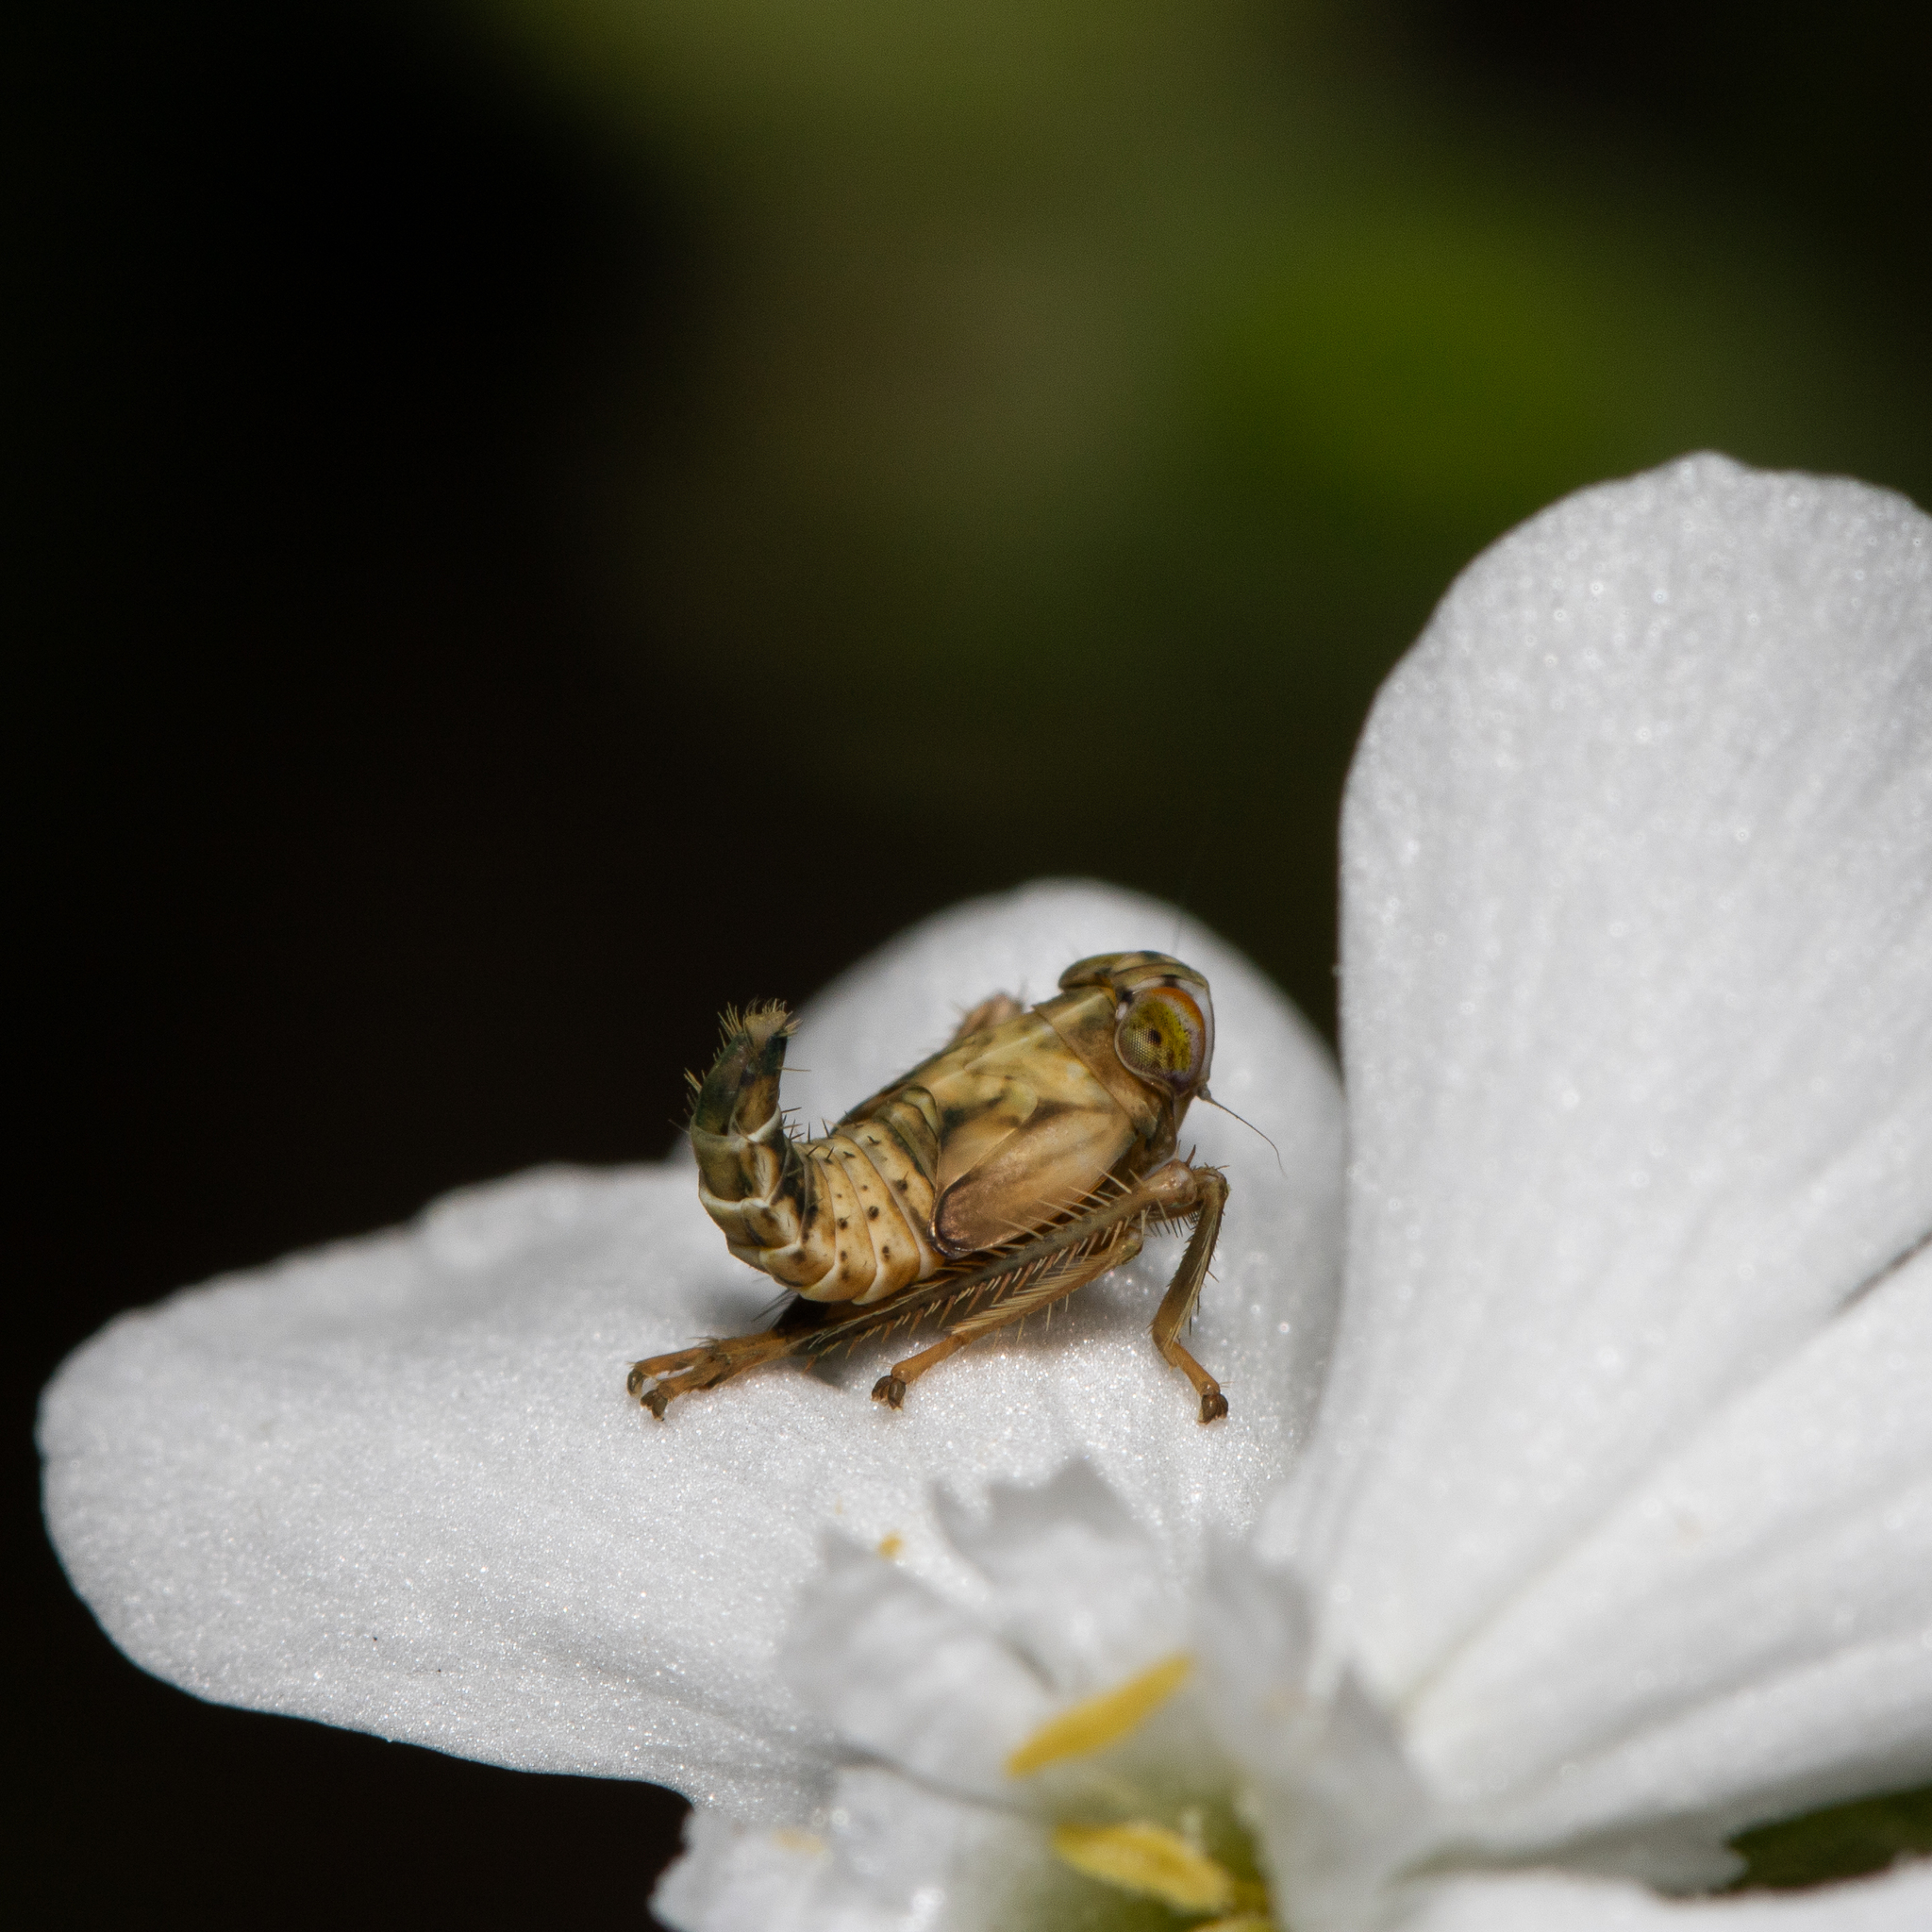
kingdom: Animalia
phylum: Arthropoda
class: Insecta
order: Hemiptera
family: Cicadellidae
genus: Jikradia
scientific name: Jikradia olitoria
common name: Coppery leafhopper
